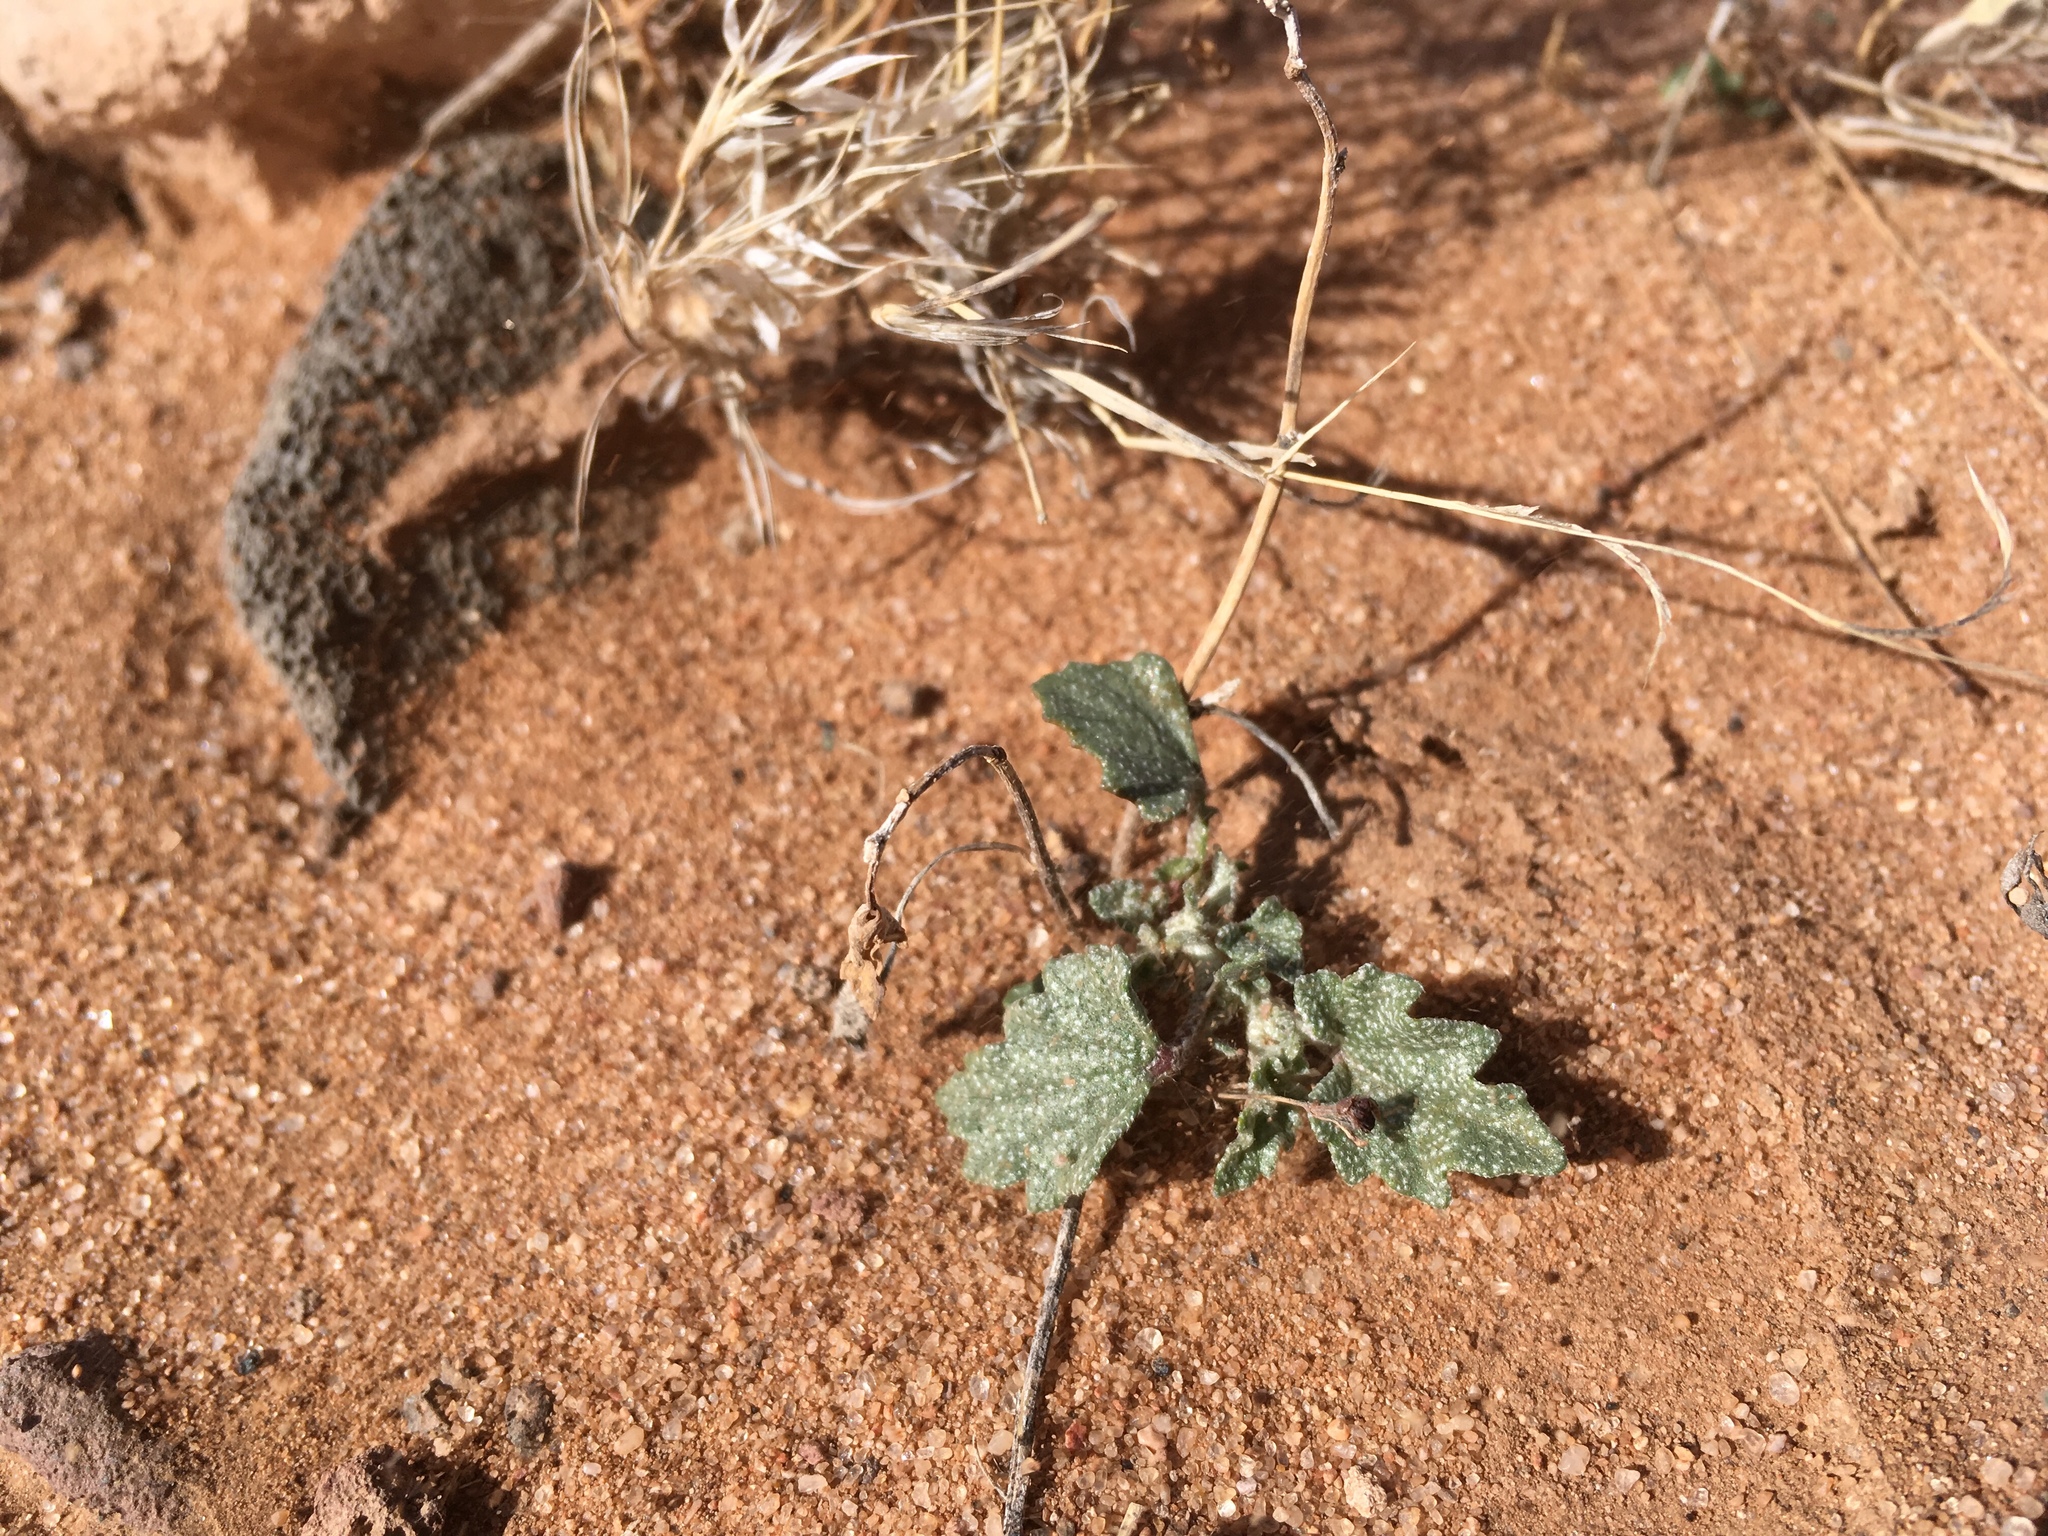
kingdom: Plantae
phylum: Tracheophyta
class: Magnoliopsida
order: Malvales
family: Malvaceae
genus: Malvella
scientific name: Malvella lepidota
